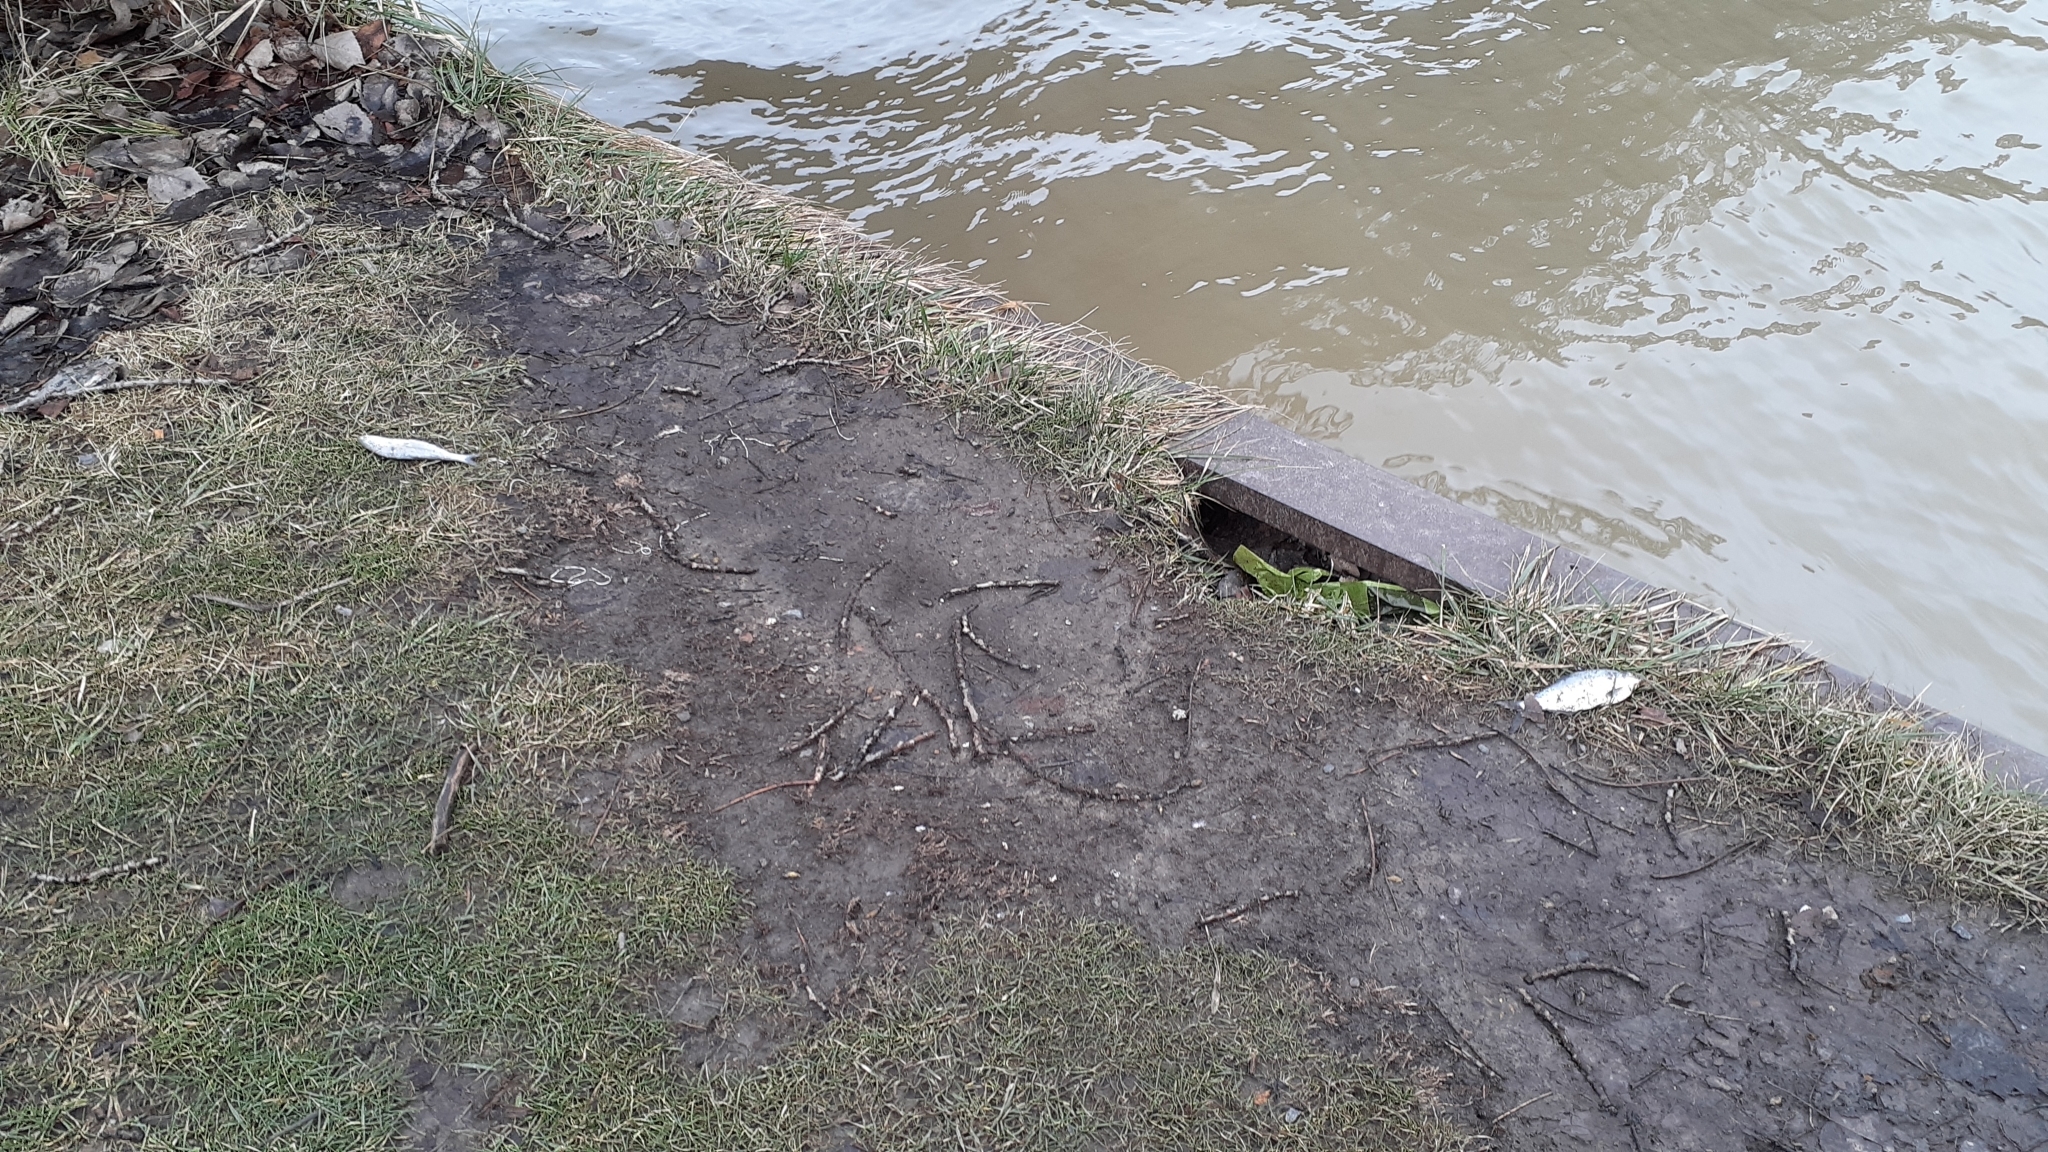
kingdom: Animalia
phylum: Chordata
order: Clupeiformes
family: Clupeidae
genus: Dorosoma
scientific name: Dorosoma cepedianum
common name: Gizzard shad
